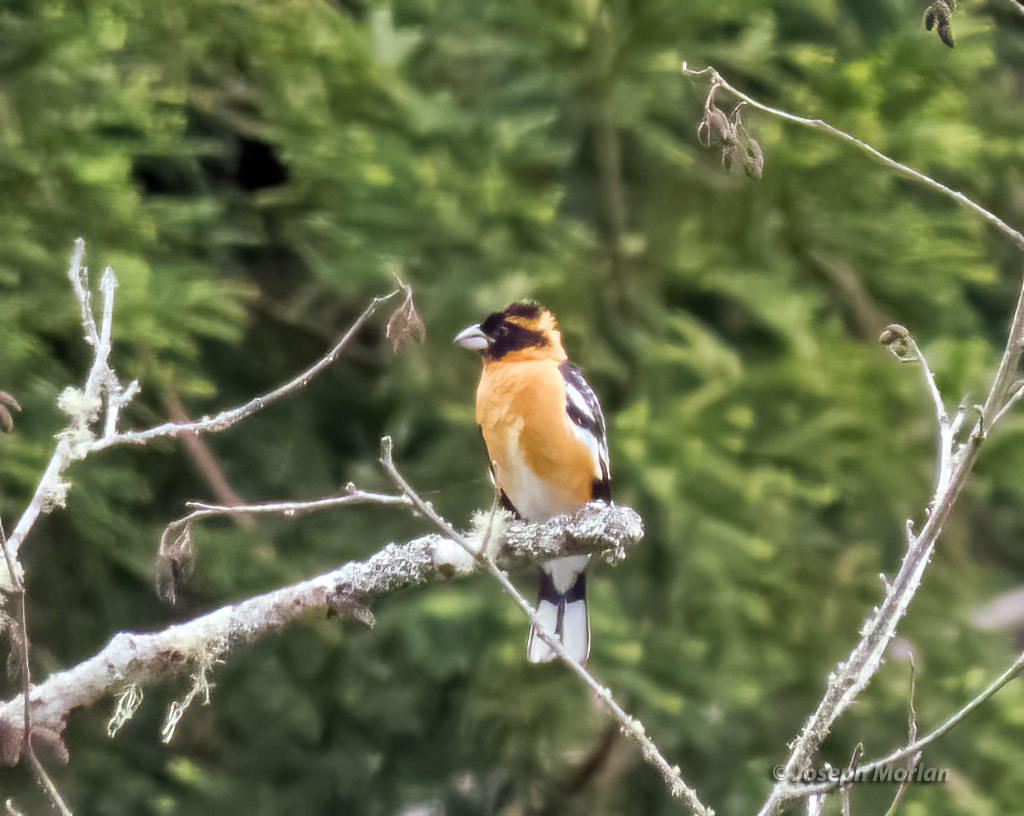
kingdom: Animalia
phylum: Chordata
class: Aves
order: Passeriformes
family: Cardinalidae
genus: Pheucticus
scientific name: Pheucticus melanocephalus
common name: Black-headed grosbeak
